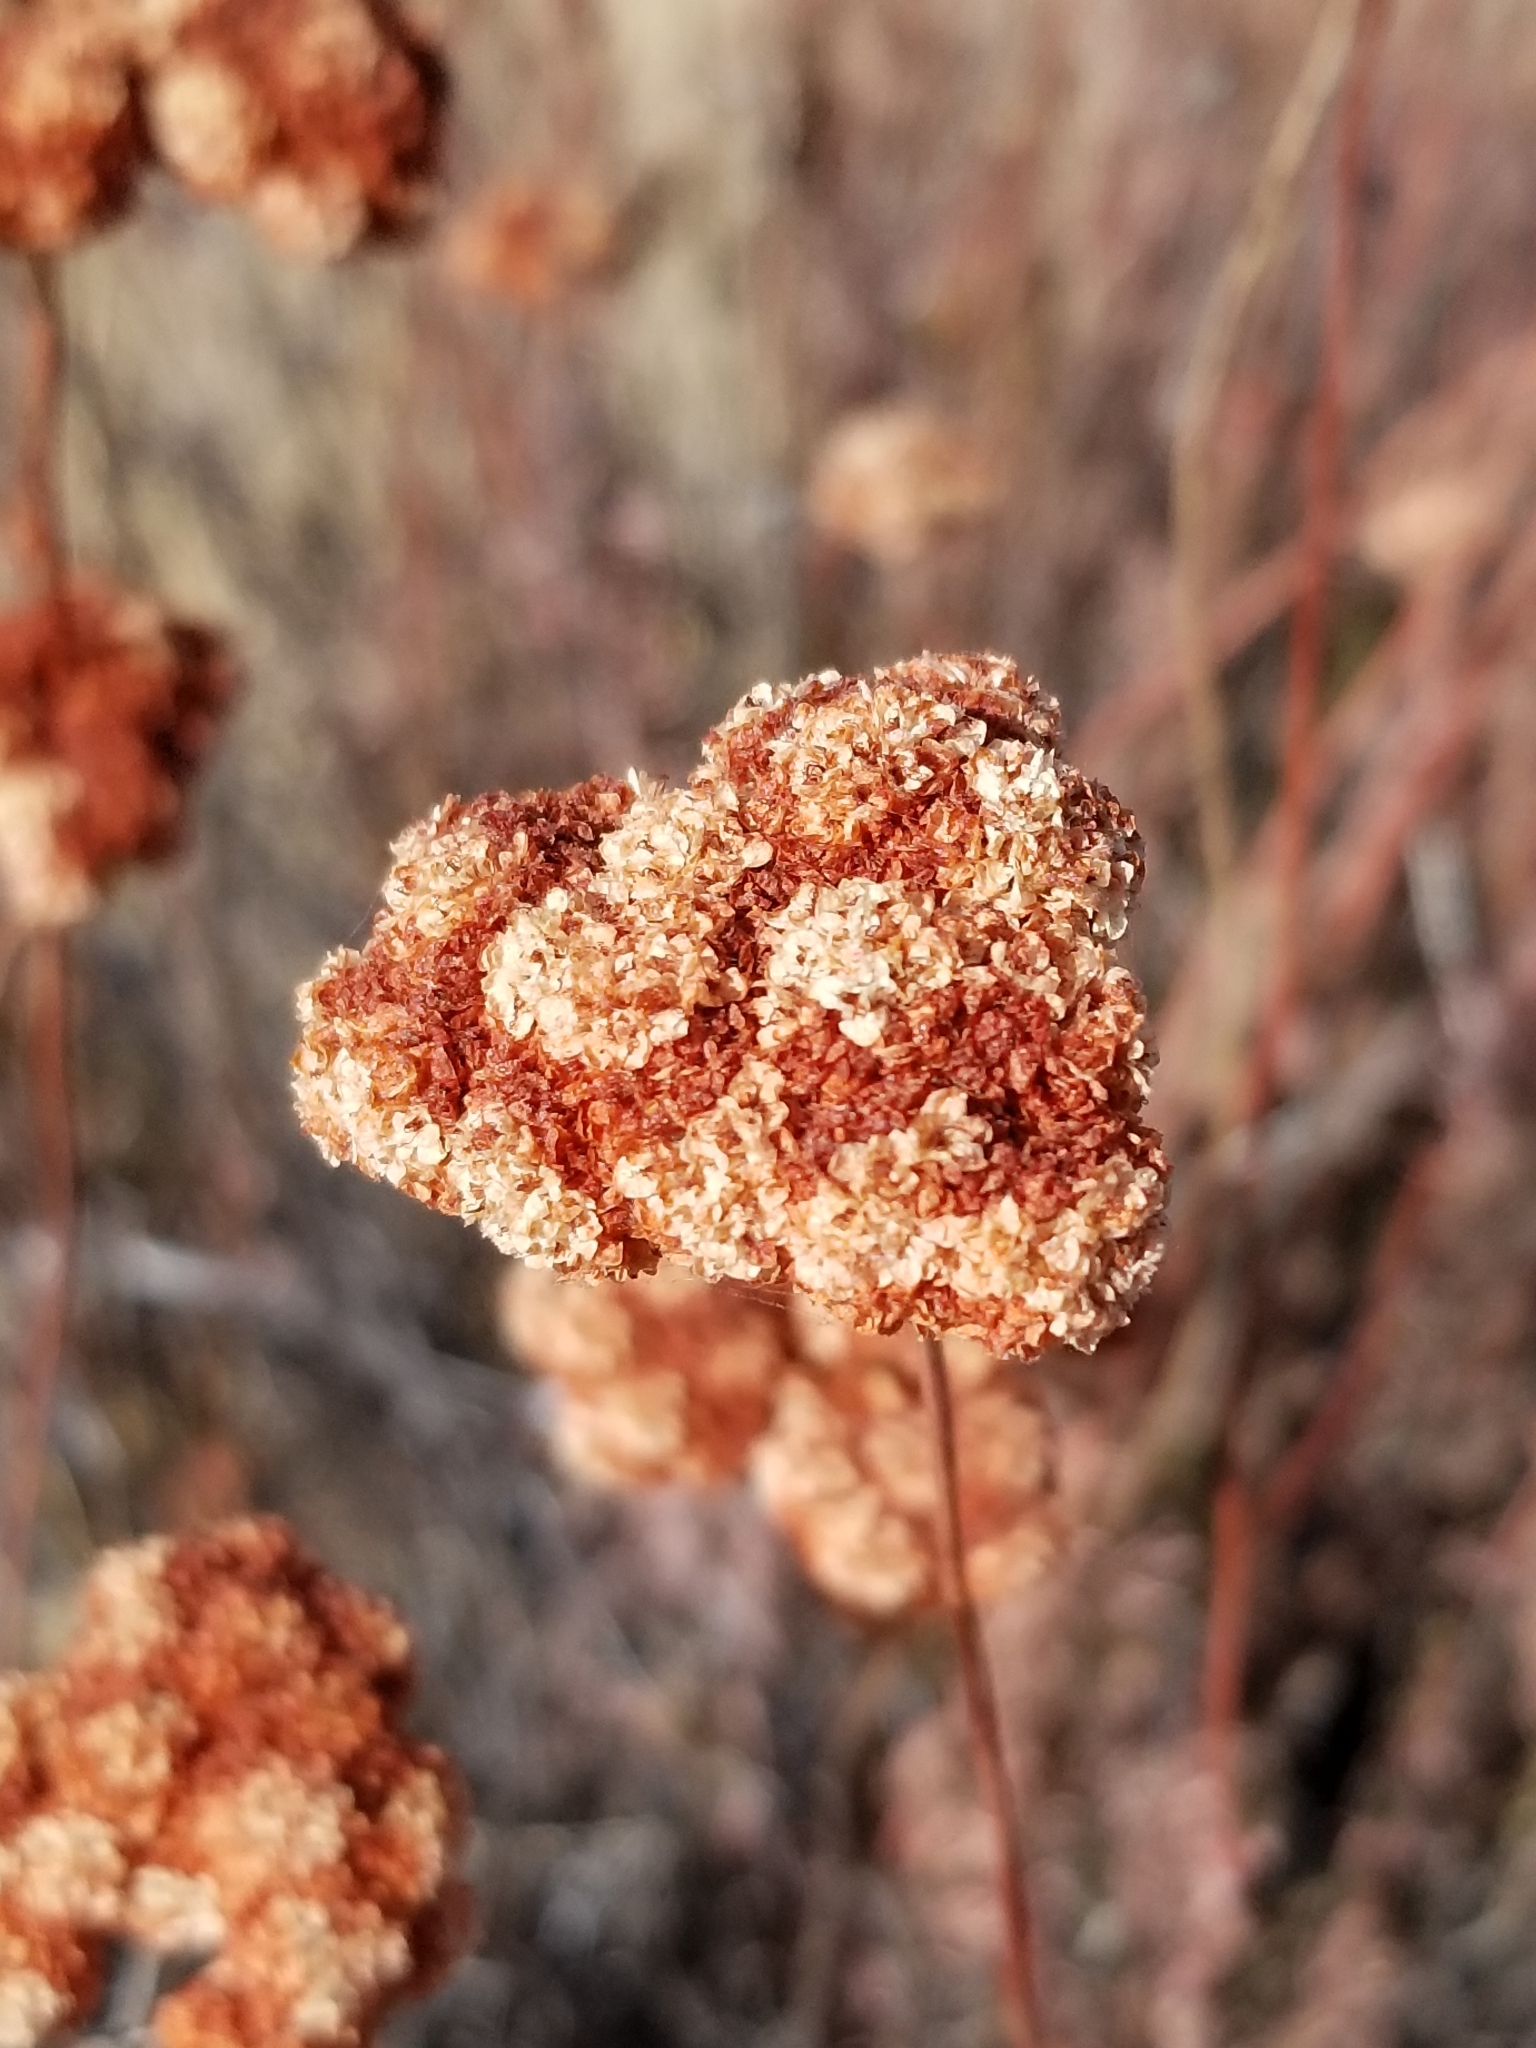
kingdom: Plantae
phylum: Tracheophyta
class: Magnoliopsida
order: Caryophyllales
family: Polygonaceae
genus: Eriogonum
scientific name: Eriogonum fasciculatum
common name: California wild buckwheat
